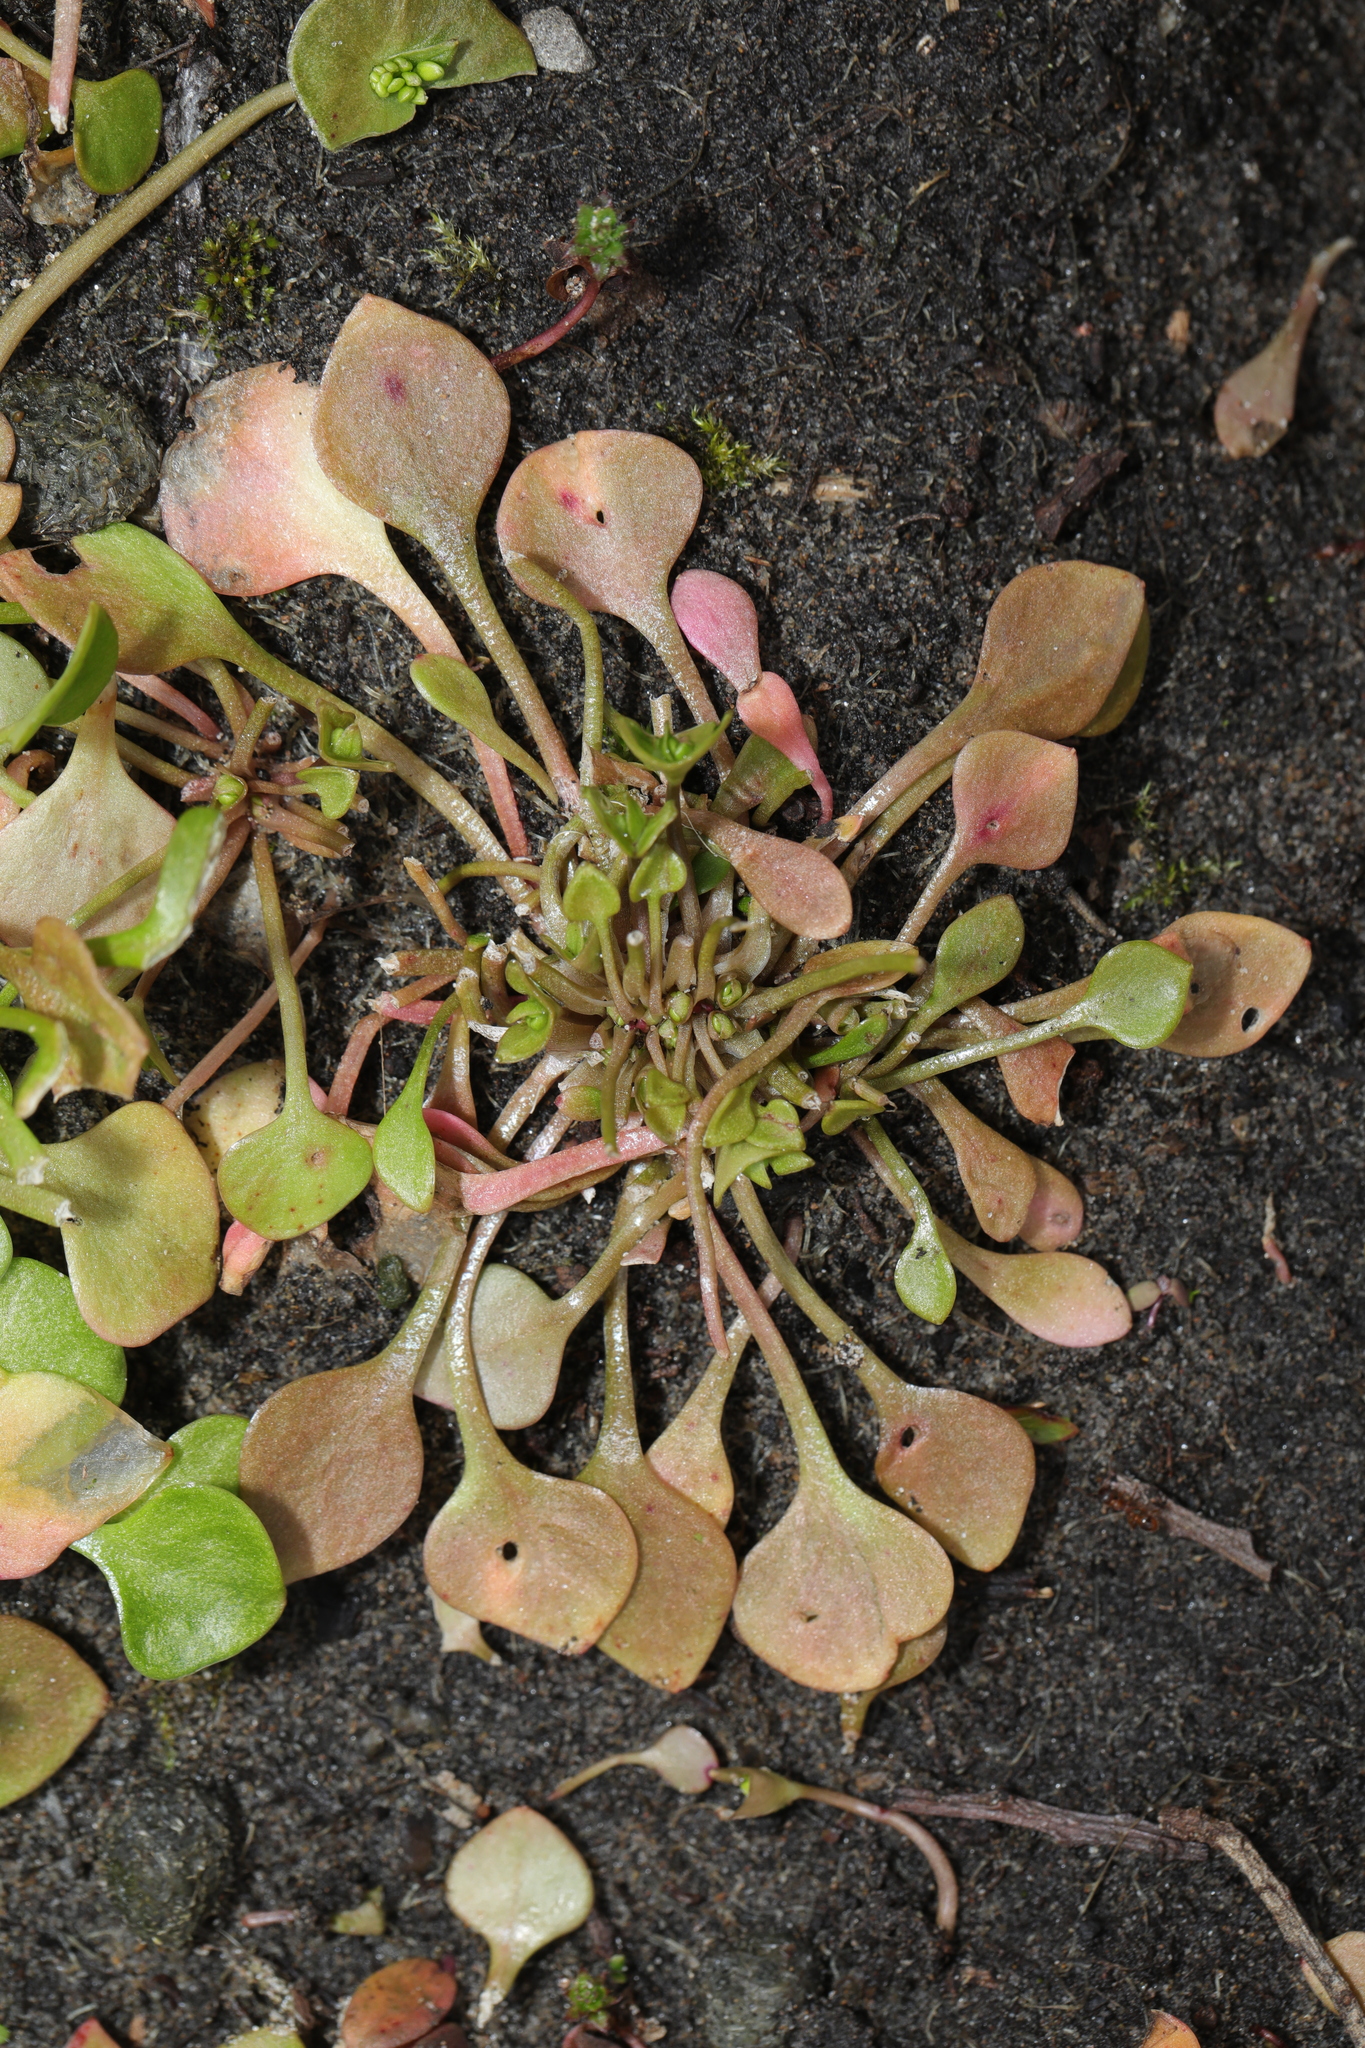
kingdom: Plantae
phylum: Tracheophyta
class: Magnoliopsida
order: Caryophyllales
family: Montiaceae
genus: Claytonia
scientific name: Claytonia perfoliata
